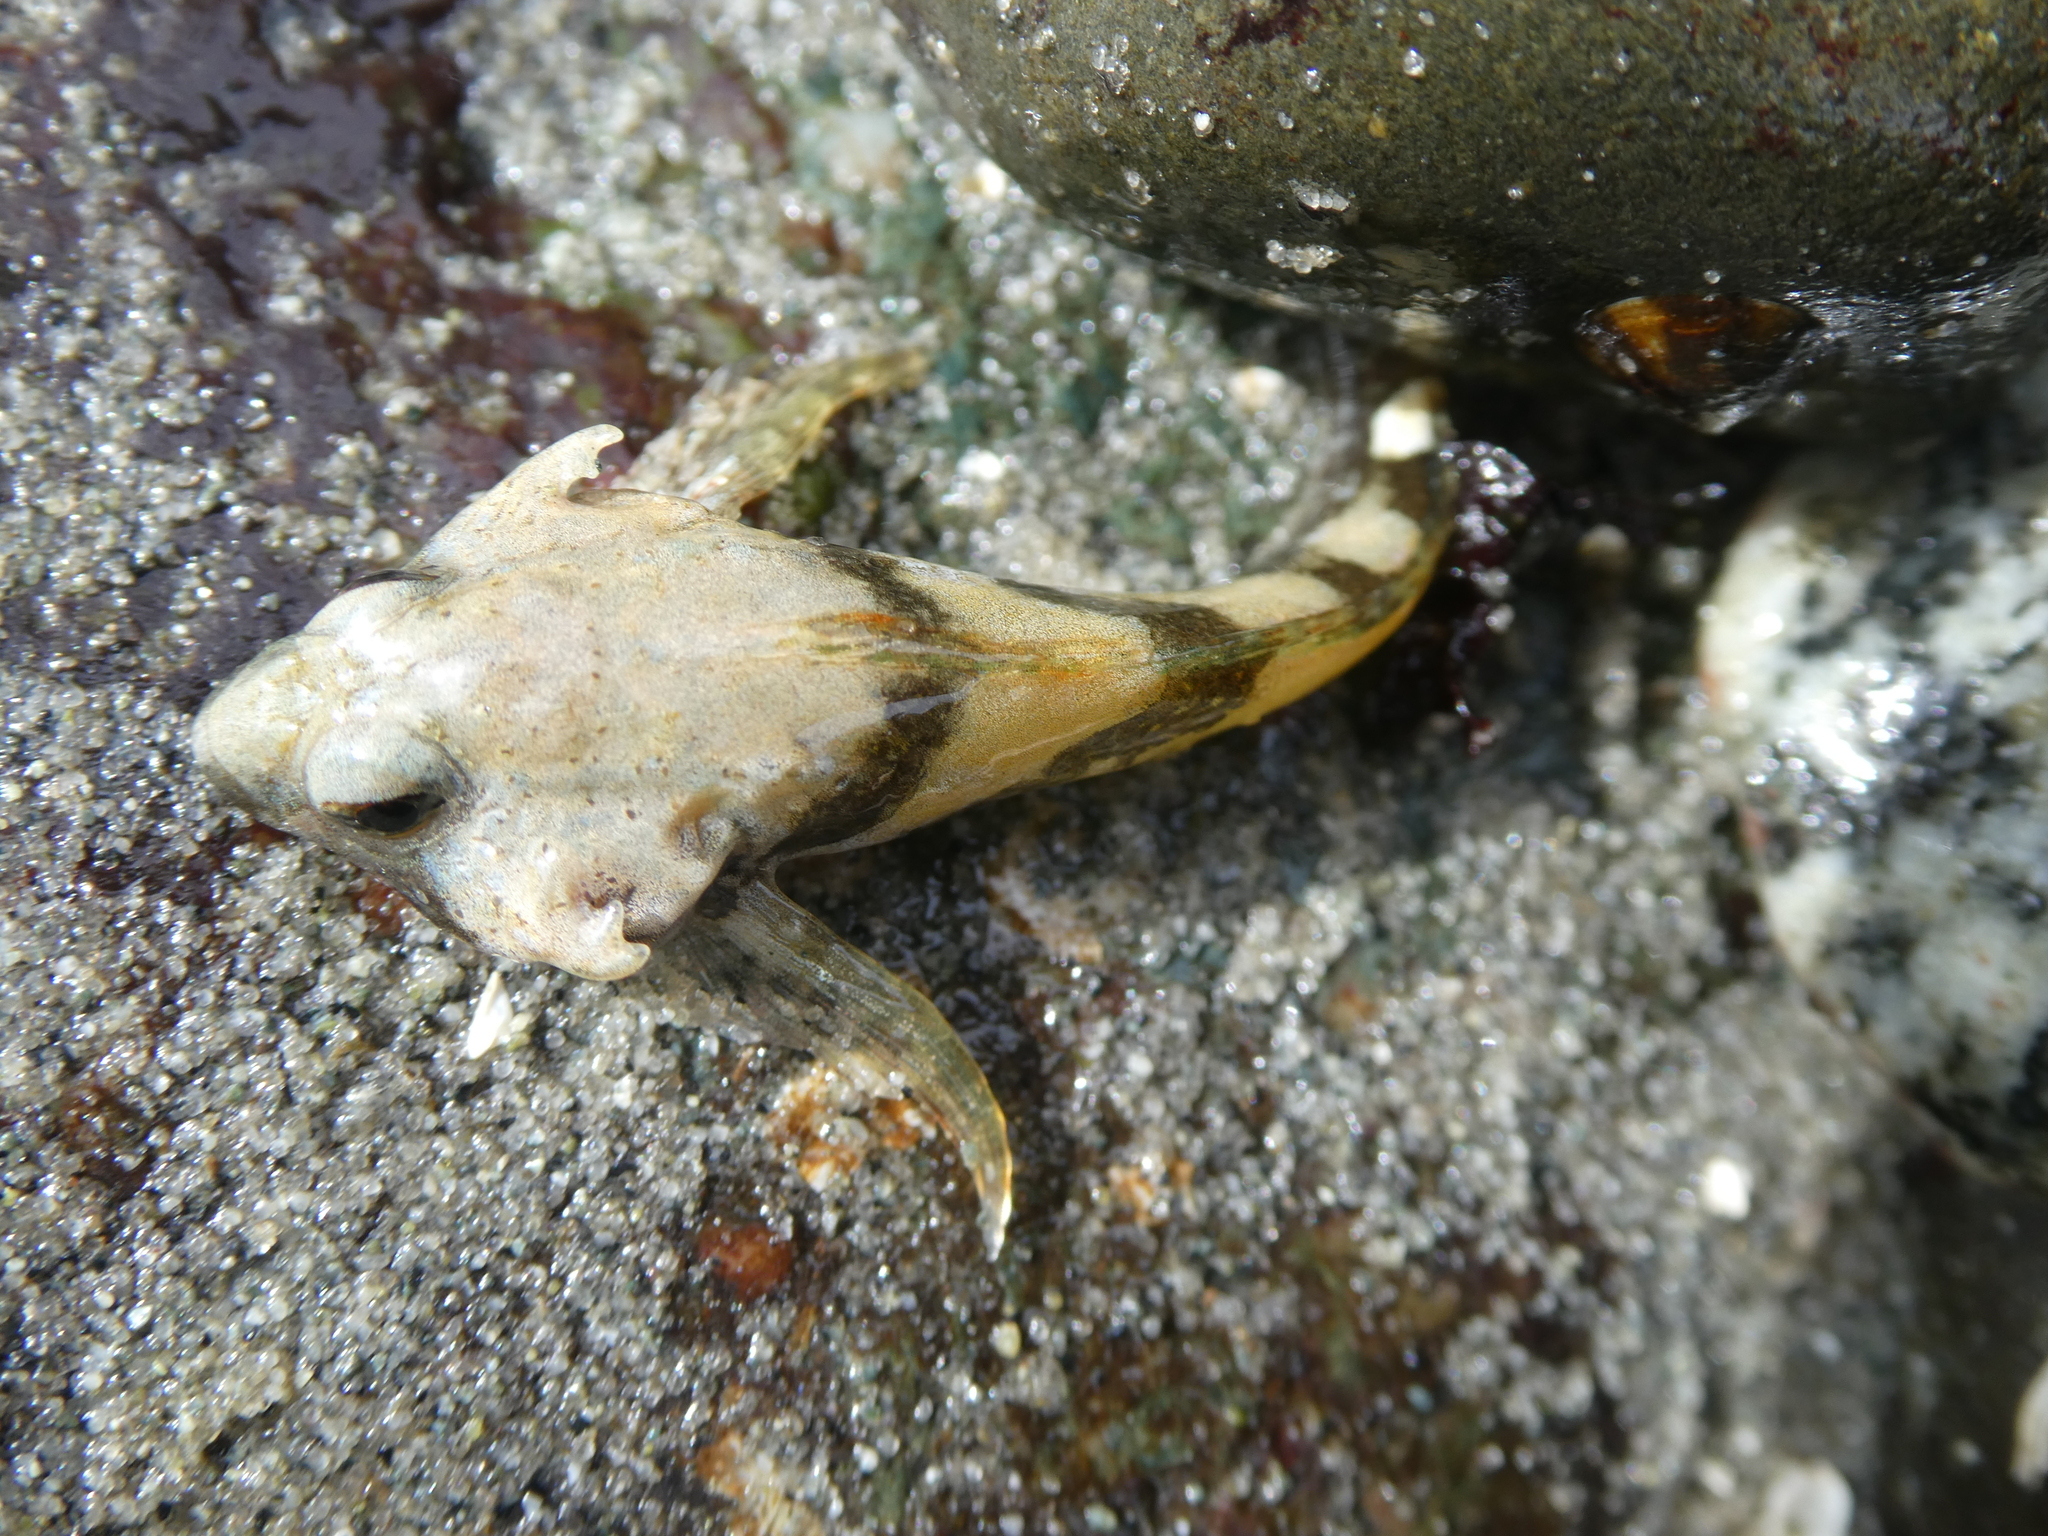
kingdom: Animalia
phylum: Chordata
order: Scorpaeniformes
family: Cottidae
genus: Oligocottus
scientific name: Oligocottus maculosus
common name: Tidepool sculpin
